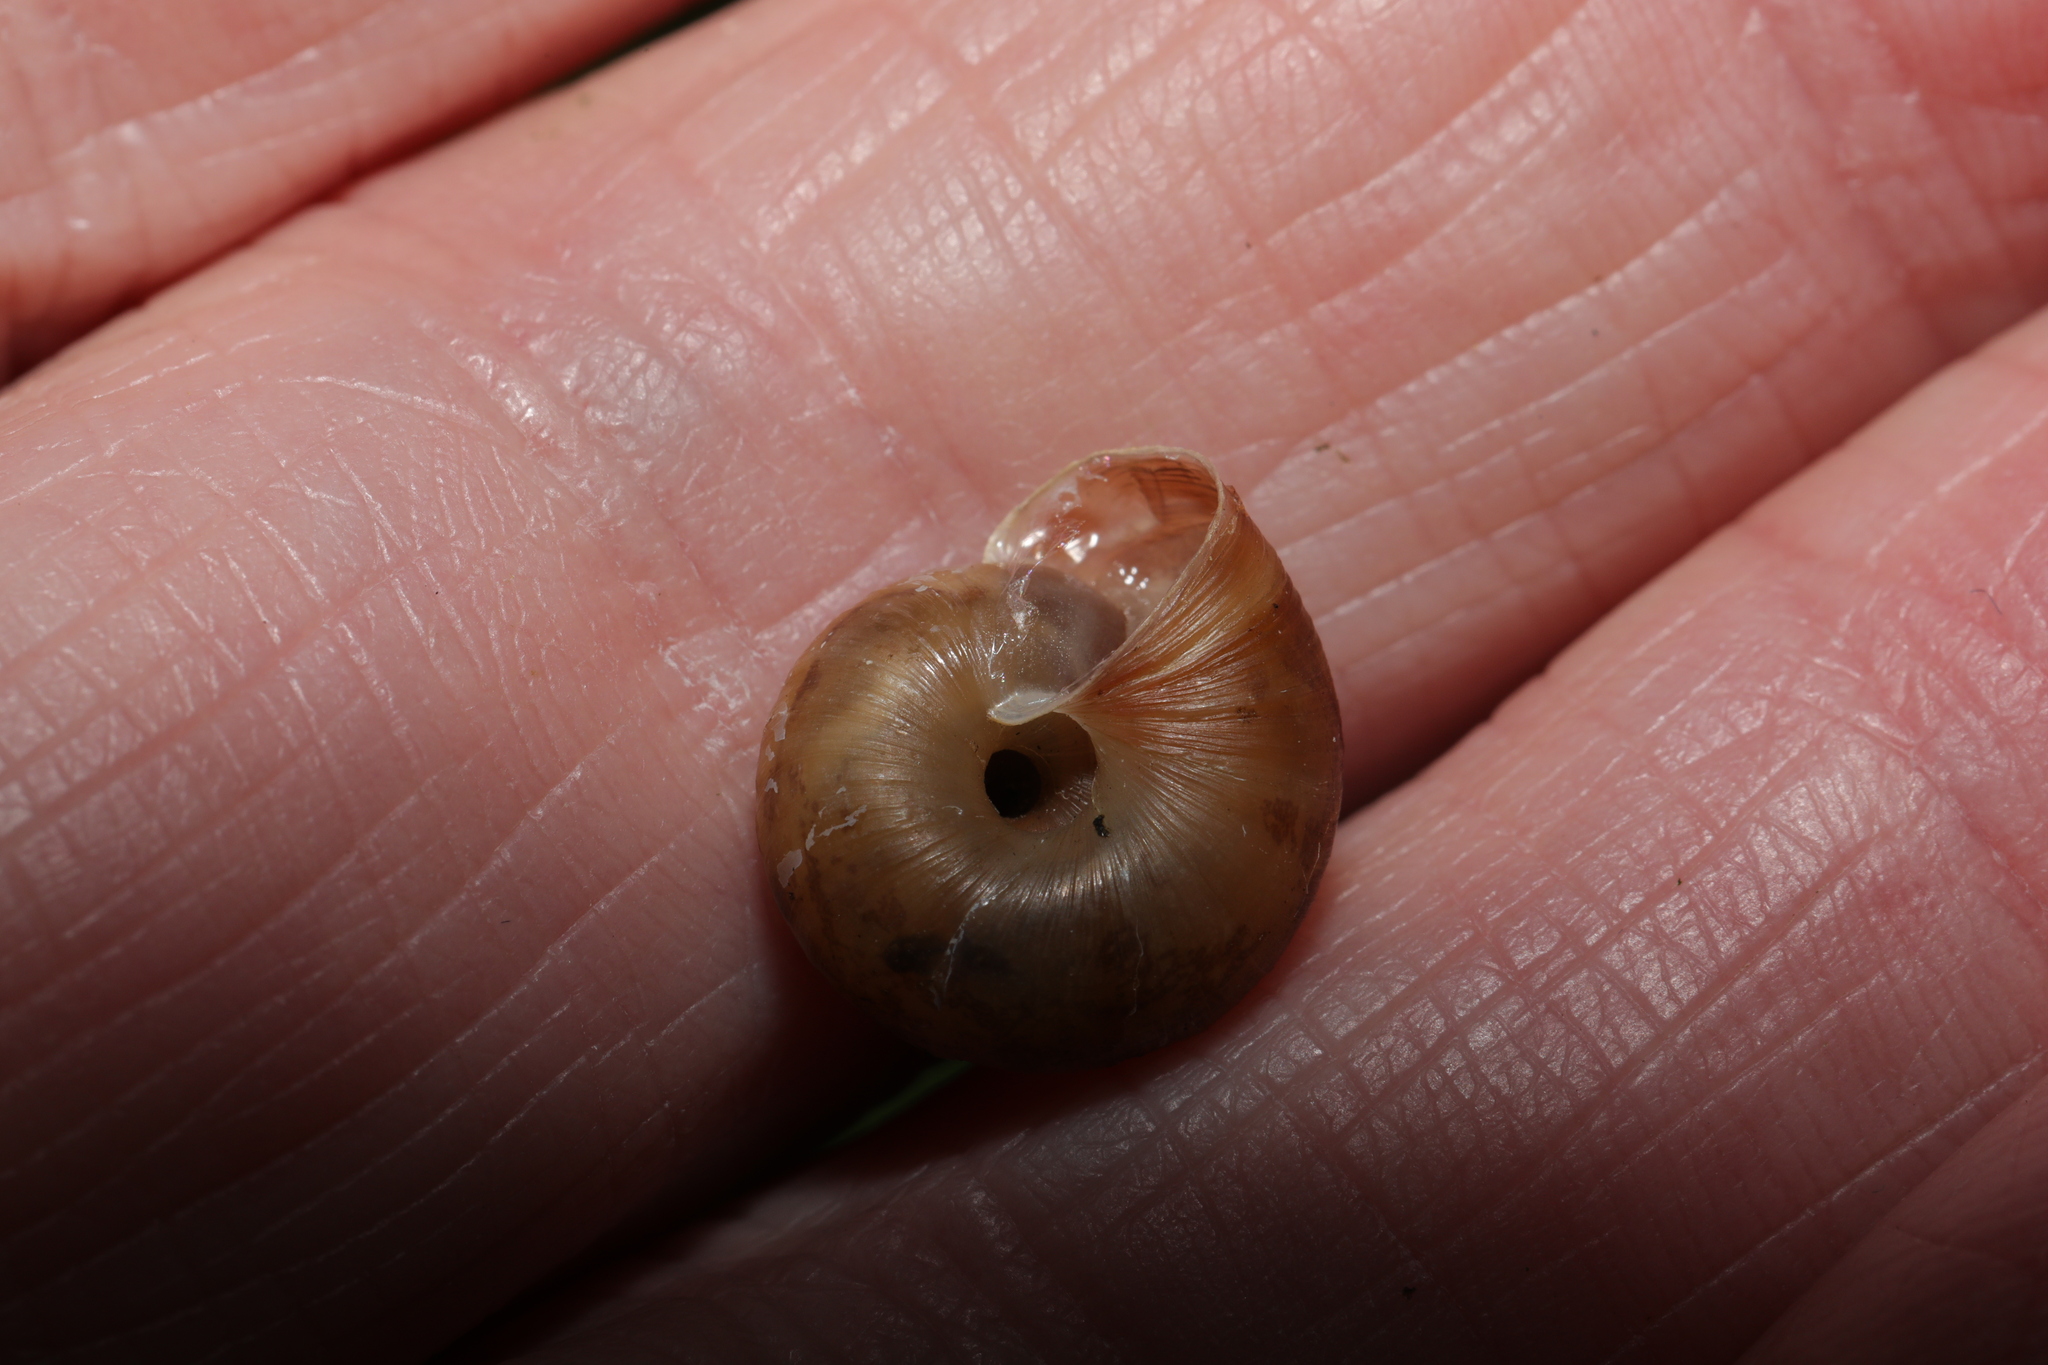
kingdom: Animalia
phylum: Mollusca
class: Gastropoda
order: Stylommatophora
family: Hygromiidae
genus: Trochulus
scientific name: Trochulus striolatus
